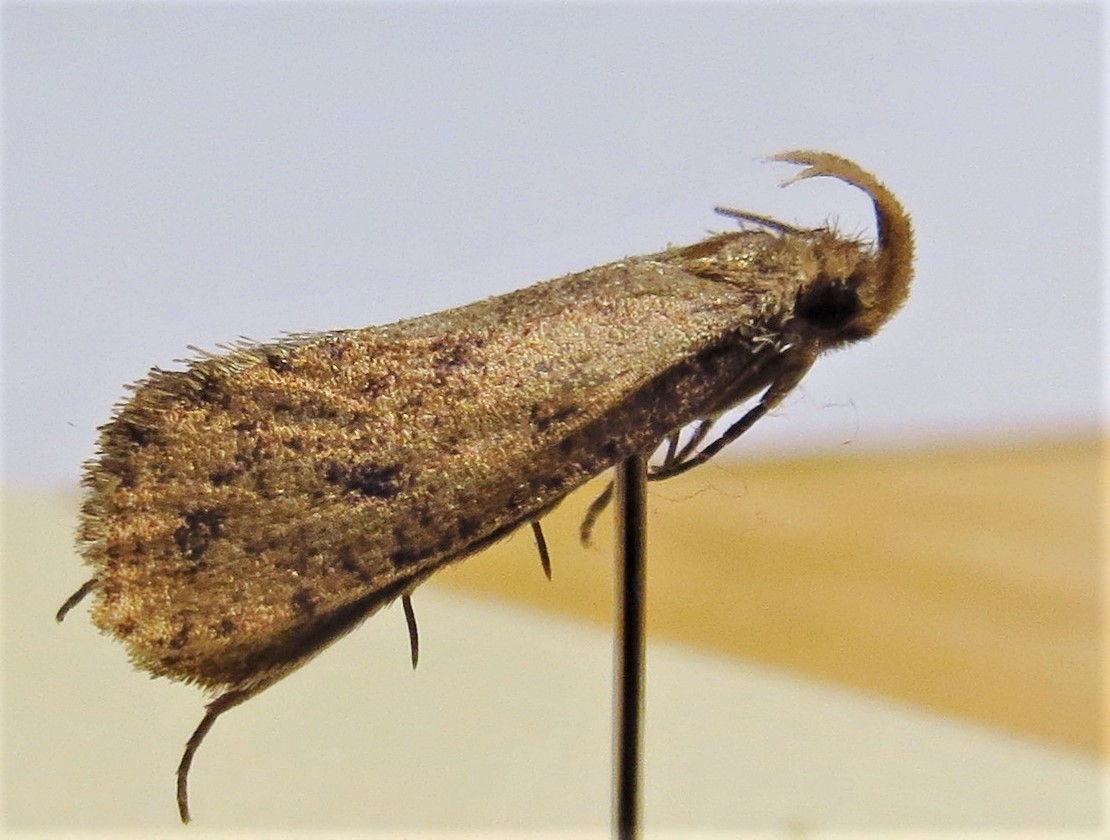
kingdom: Animalia
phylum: Arthropoda
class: Insecta
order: Lepidoptera
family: Tineidae
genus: Acrolophus
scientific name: Acrolophus mortipennella
